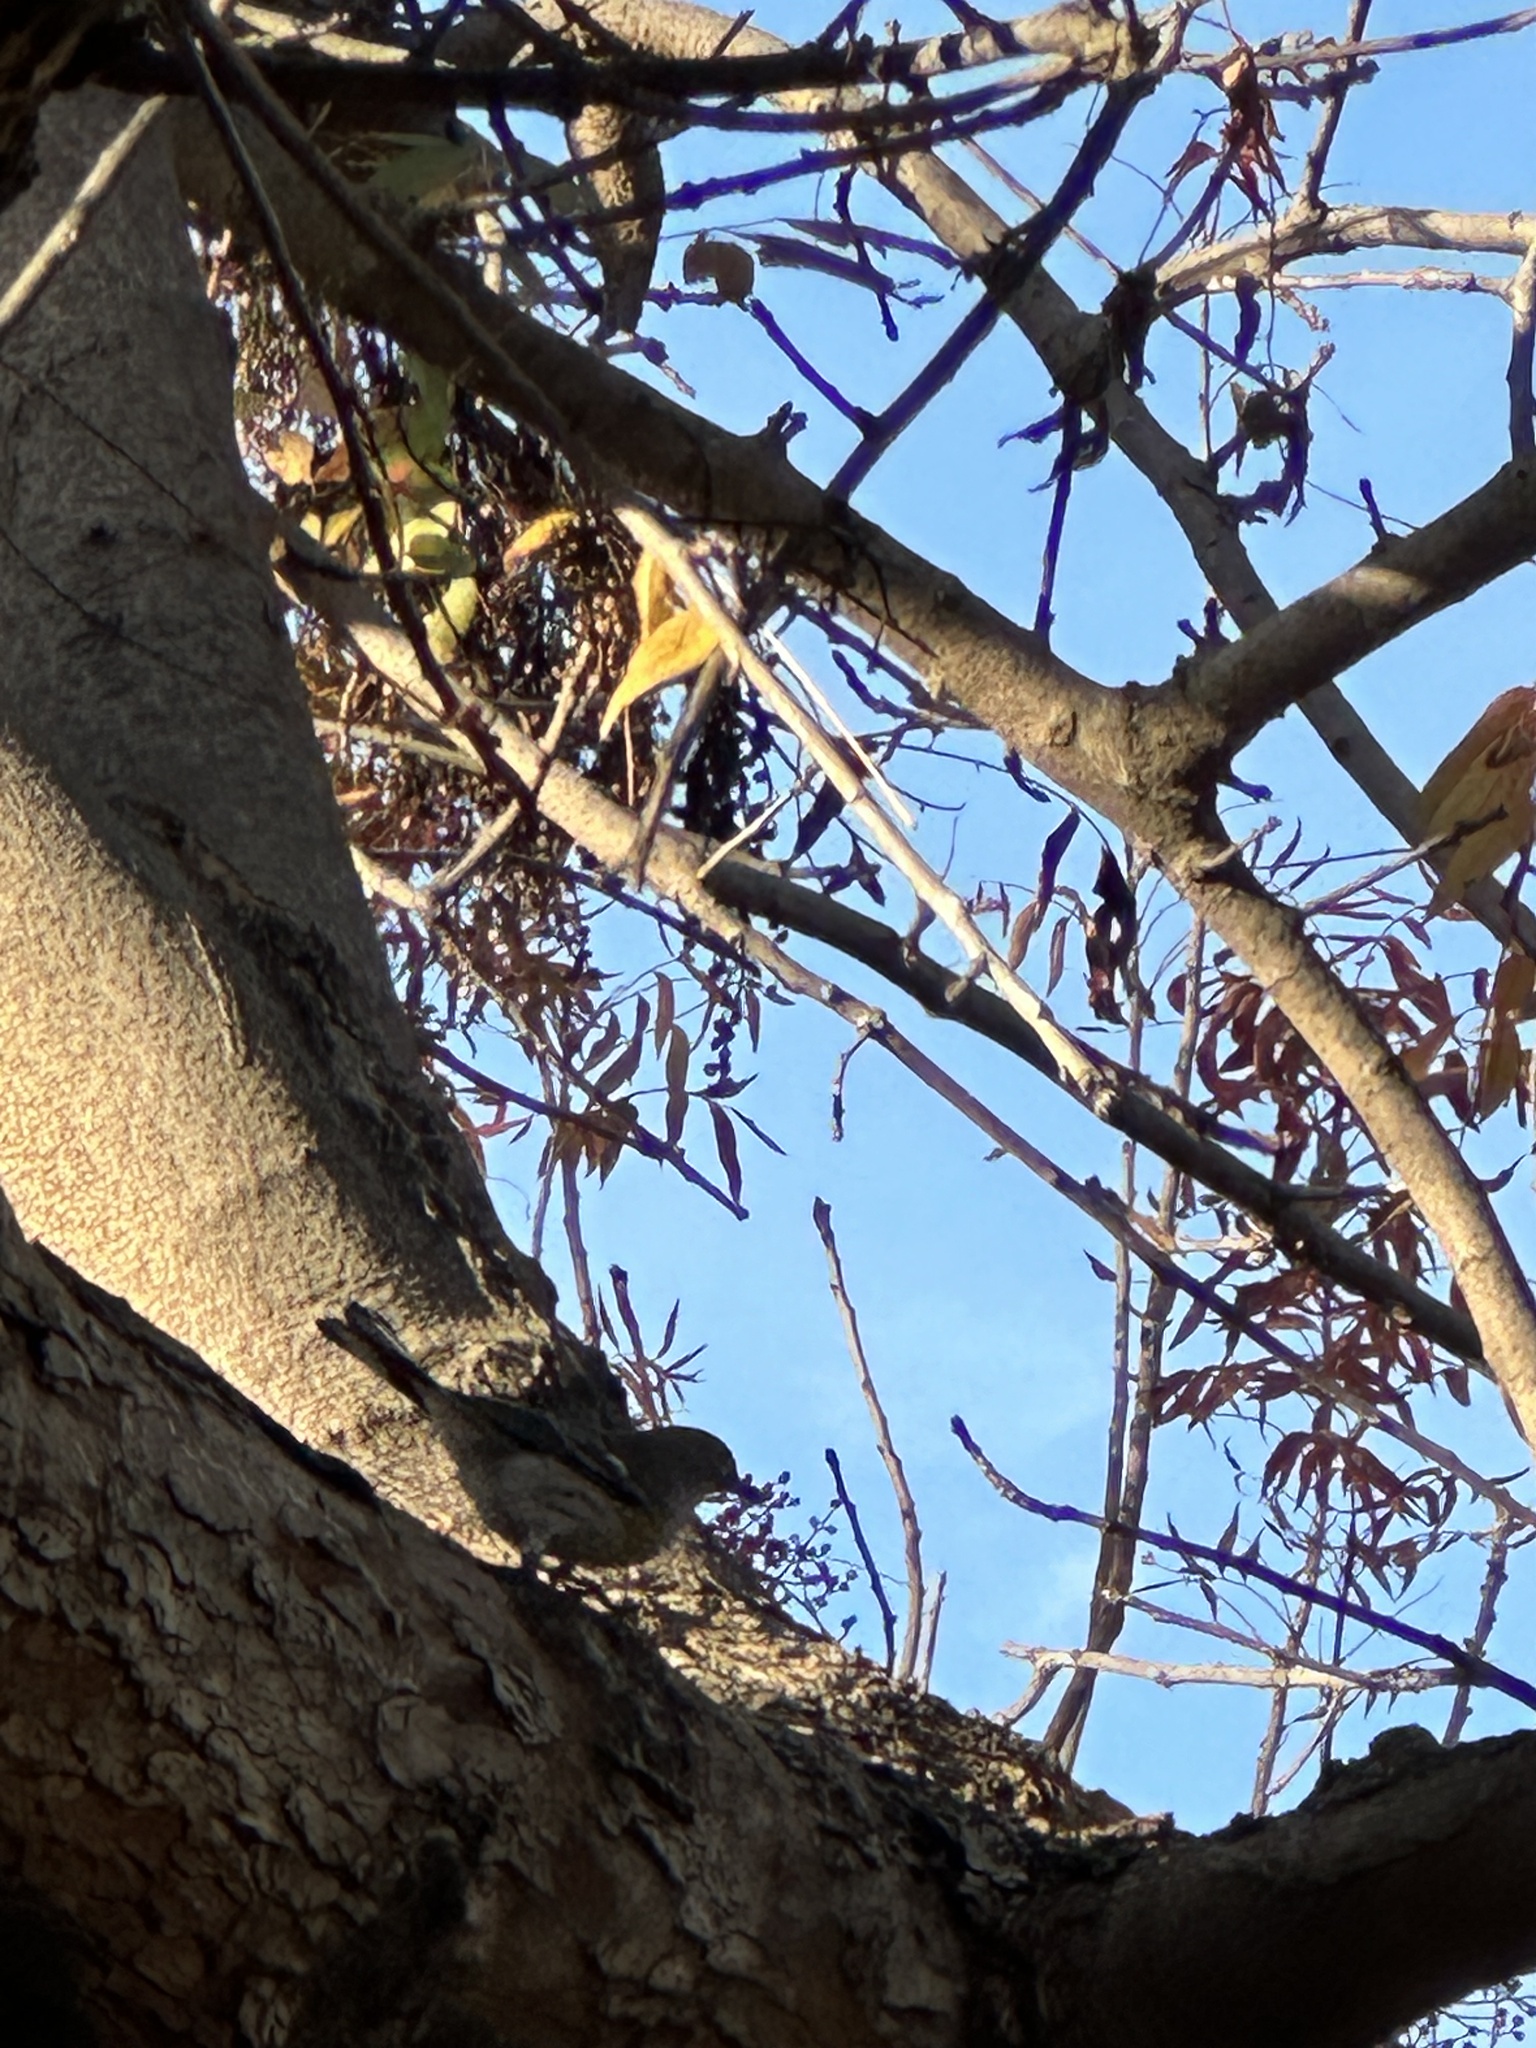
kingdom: Animalia
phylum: Chordata
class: Aves
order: Passeriformes
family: Parulidae
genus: Setophaga
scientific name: Setophaga coronata
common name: Myrtle warbler
